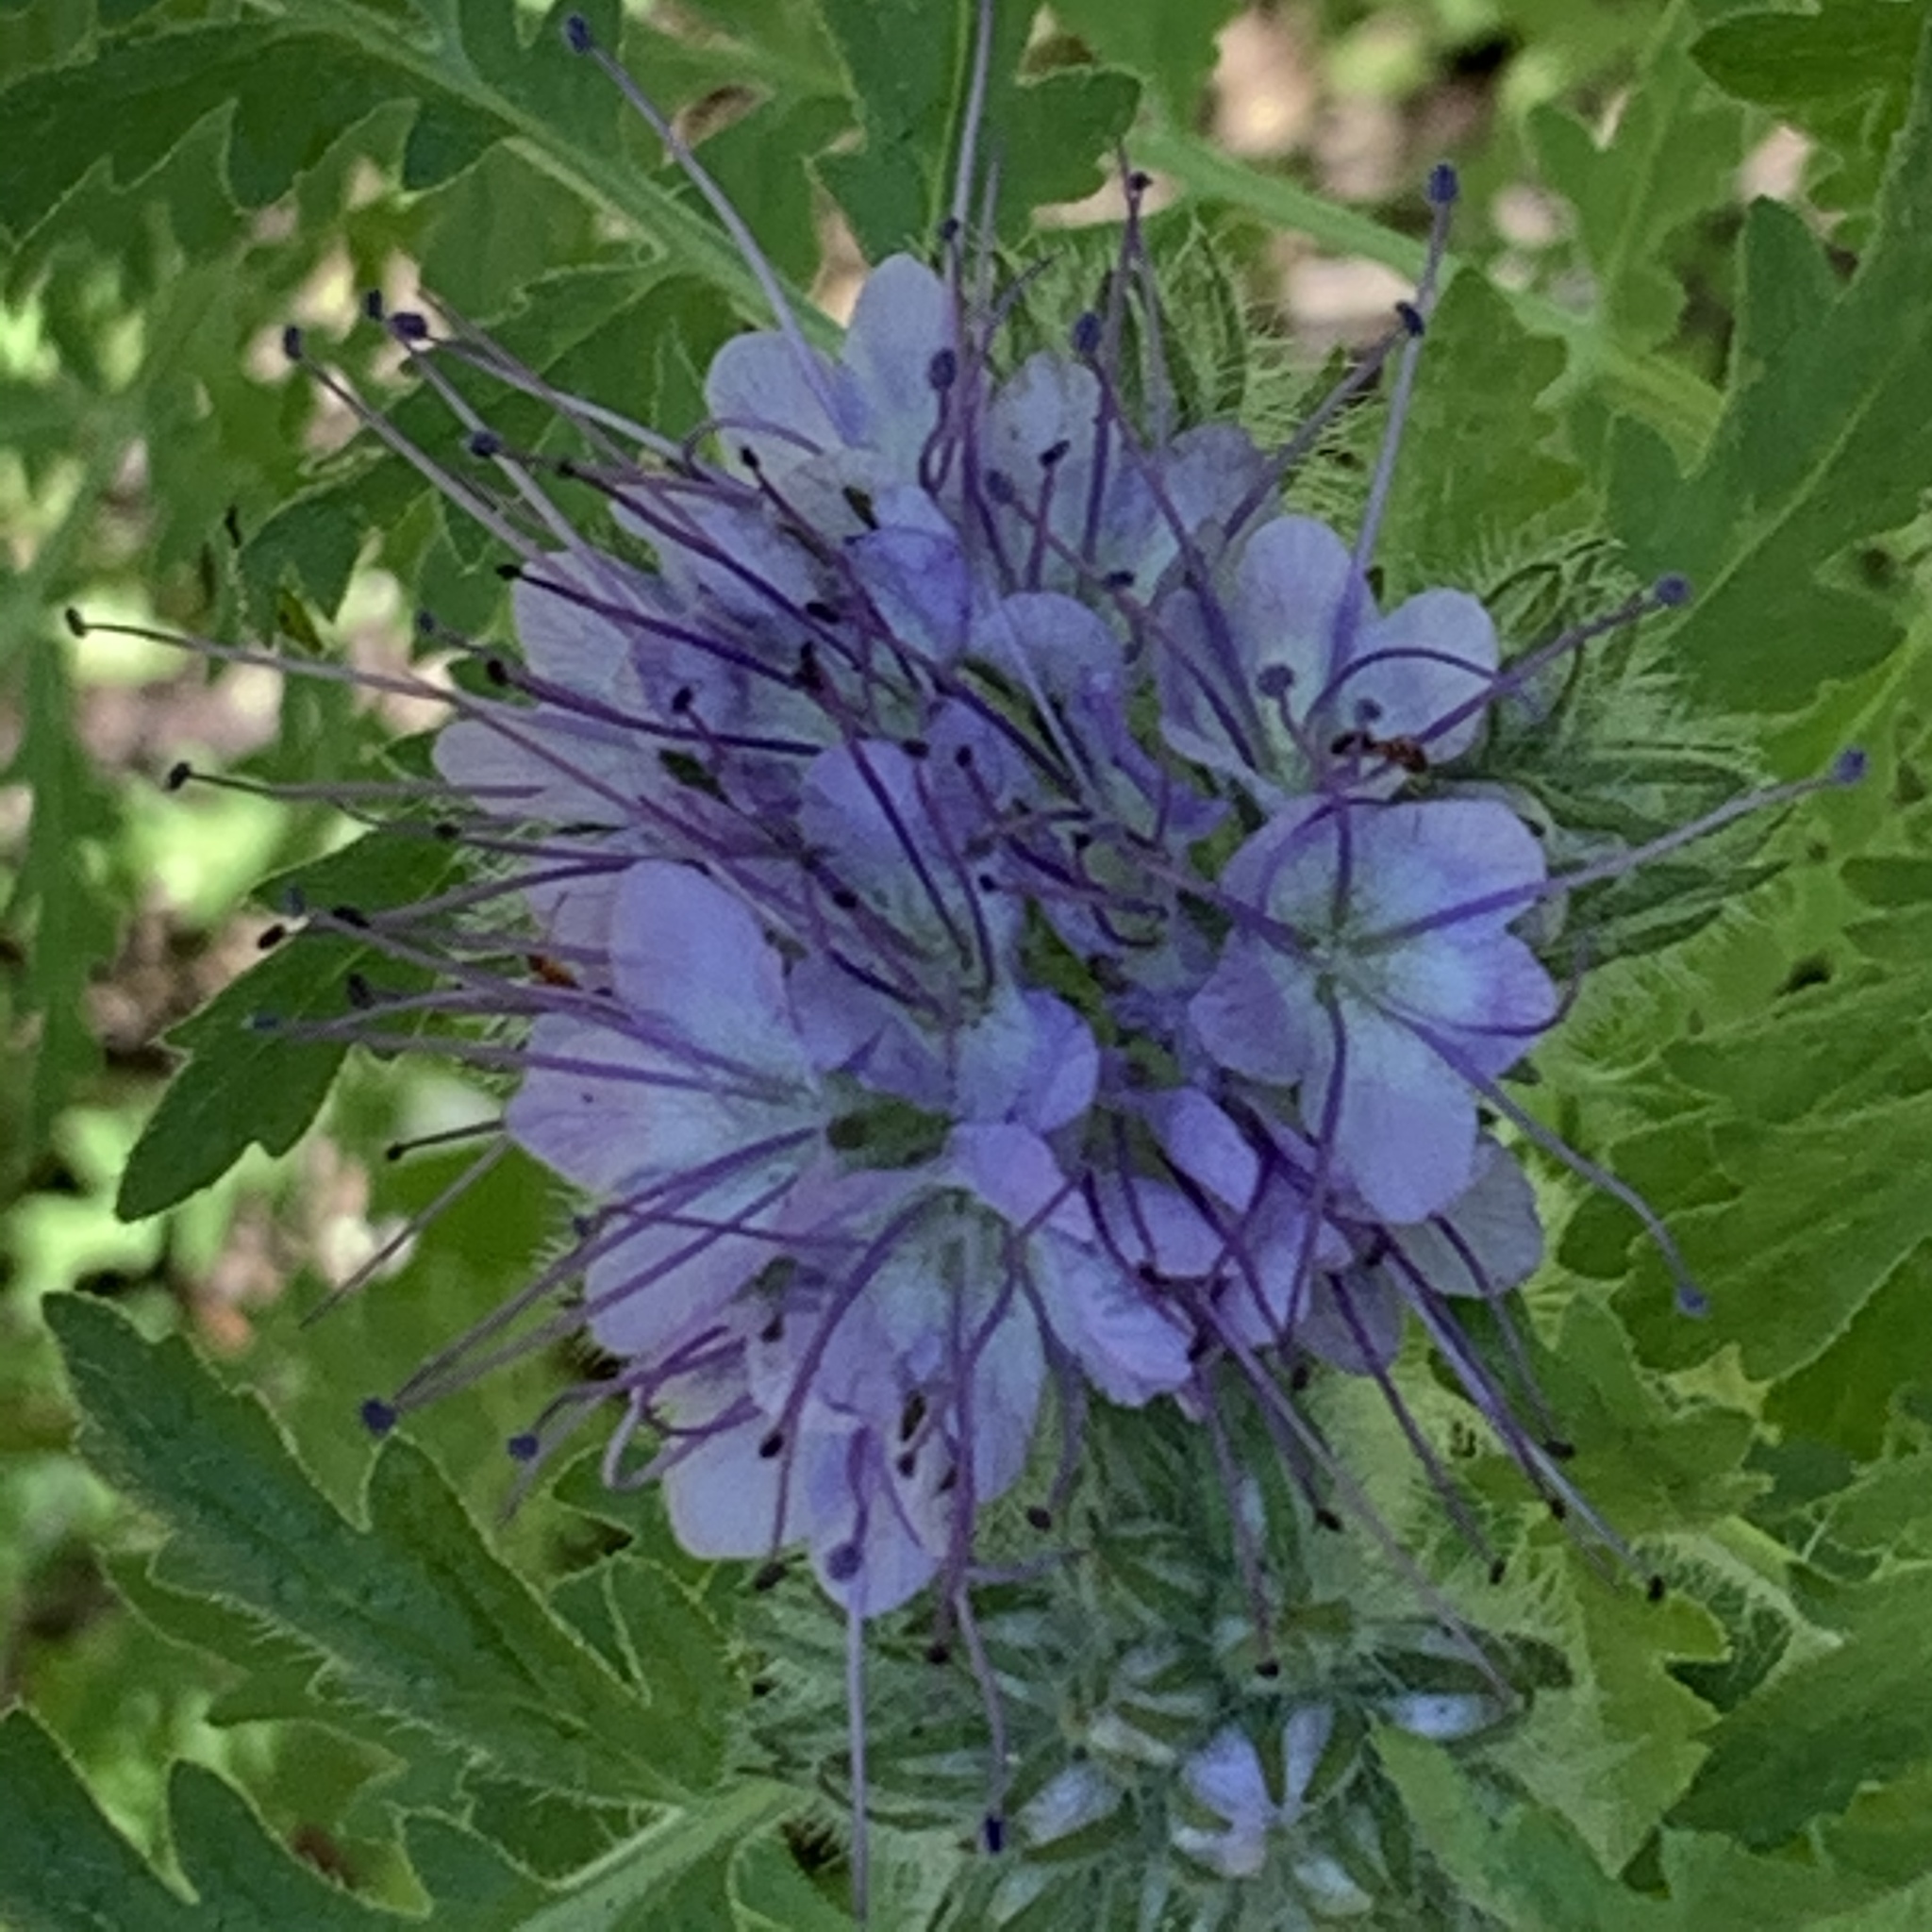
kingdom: Plantae
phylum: Tracheophyta
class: Magnoliopsida
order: Boraginales
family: Hydrophyllaceae
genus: Phacelia
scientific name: Phacelia tanacetifolia
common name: Phacelia
